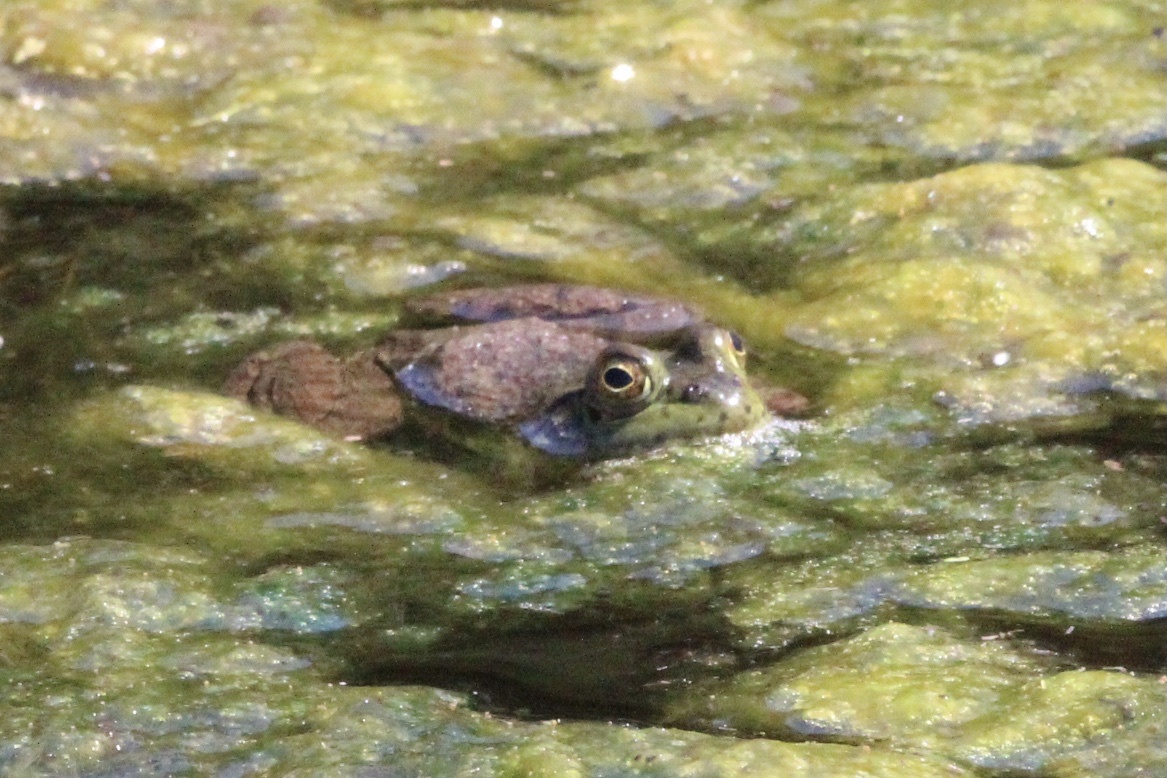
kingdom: Animalia
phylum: Chordata
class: Amphibia
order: Anura
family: Ranidae
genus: Lithobates
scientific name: Lithobates catesbeianus
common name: American bullfrog
